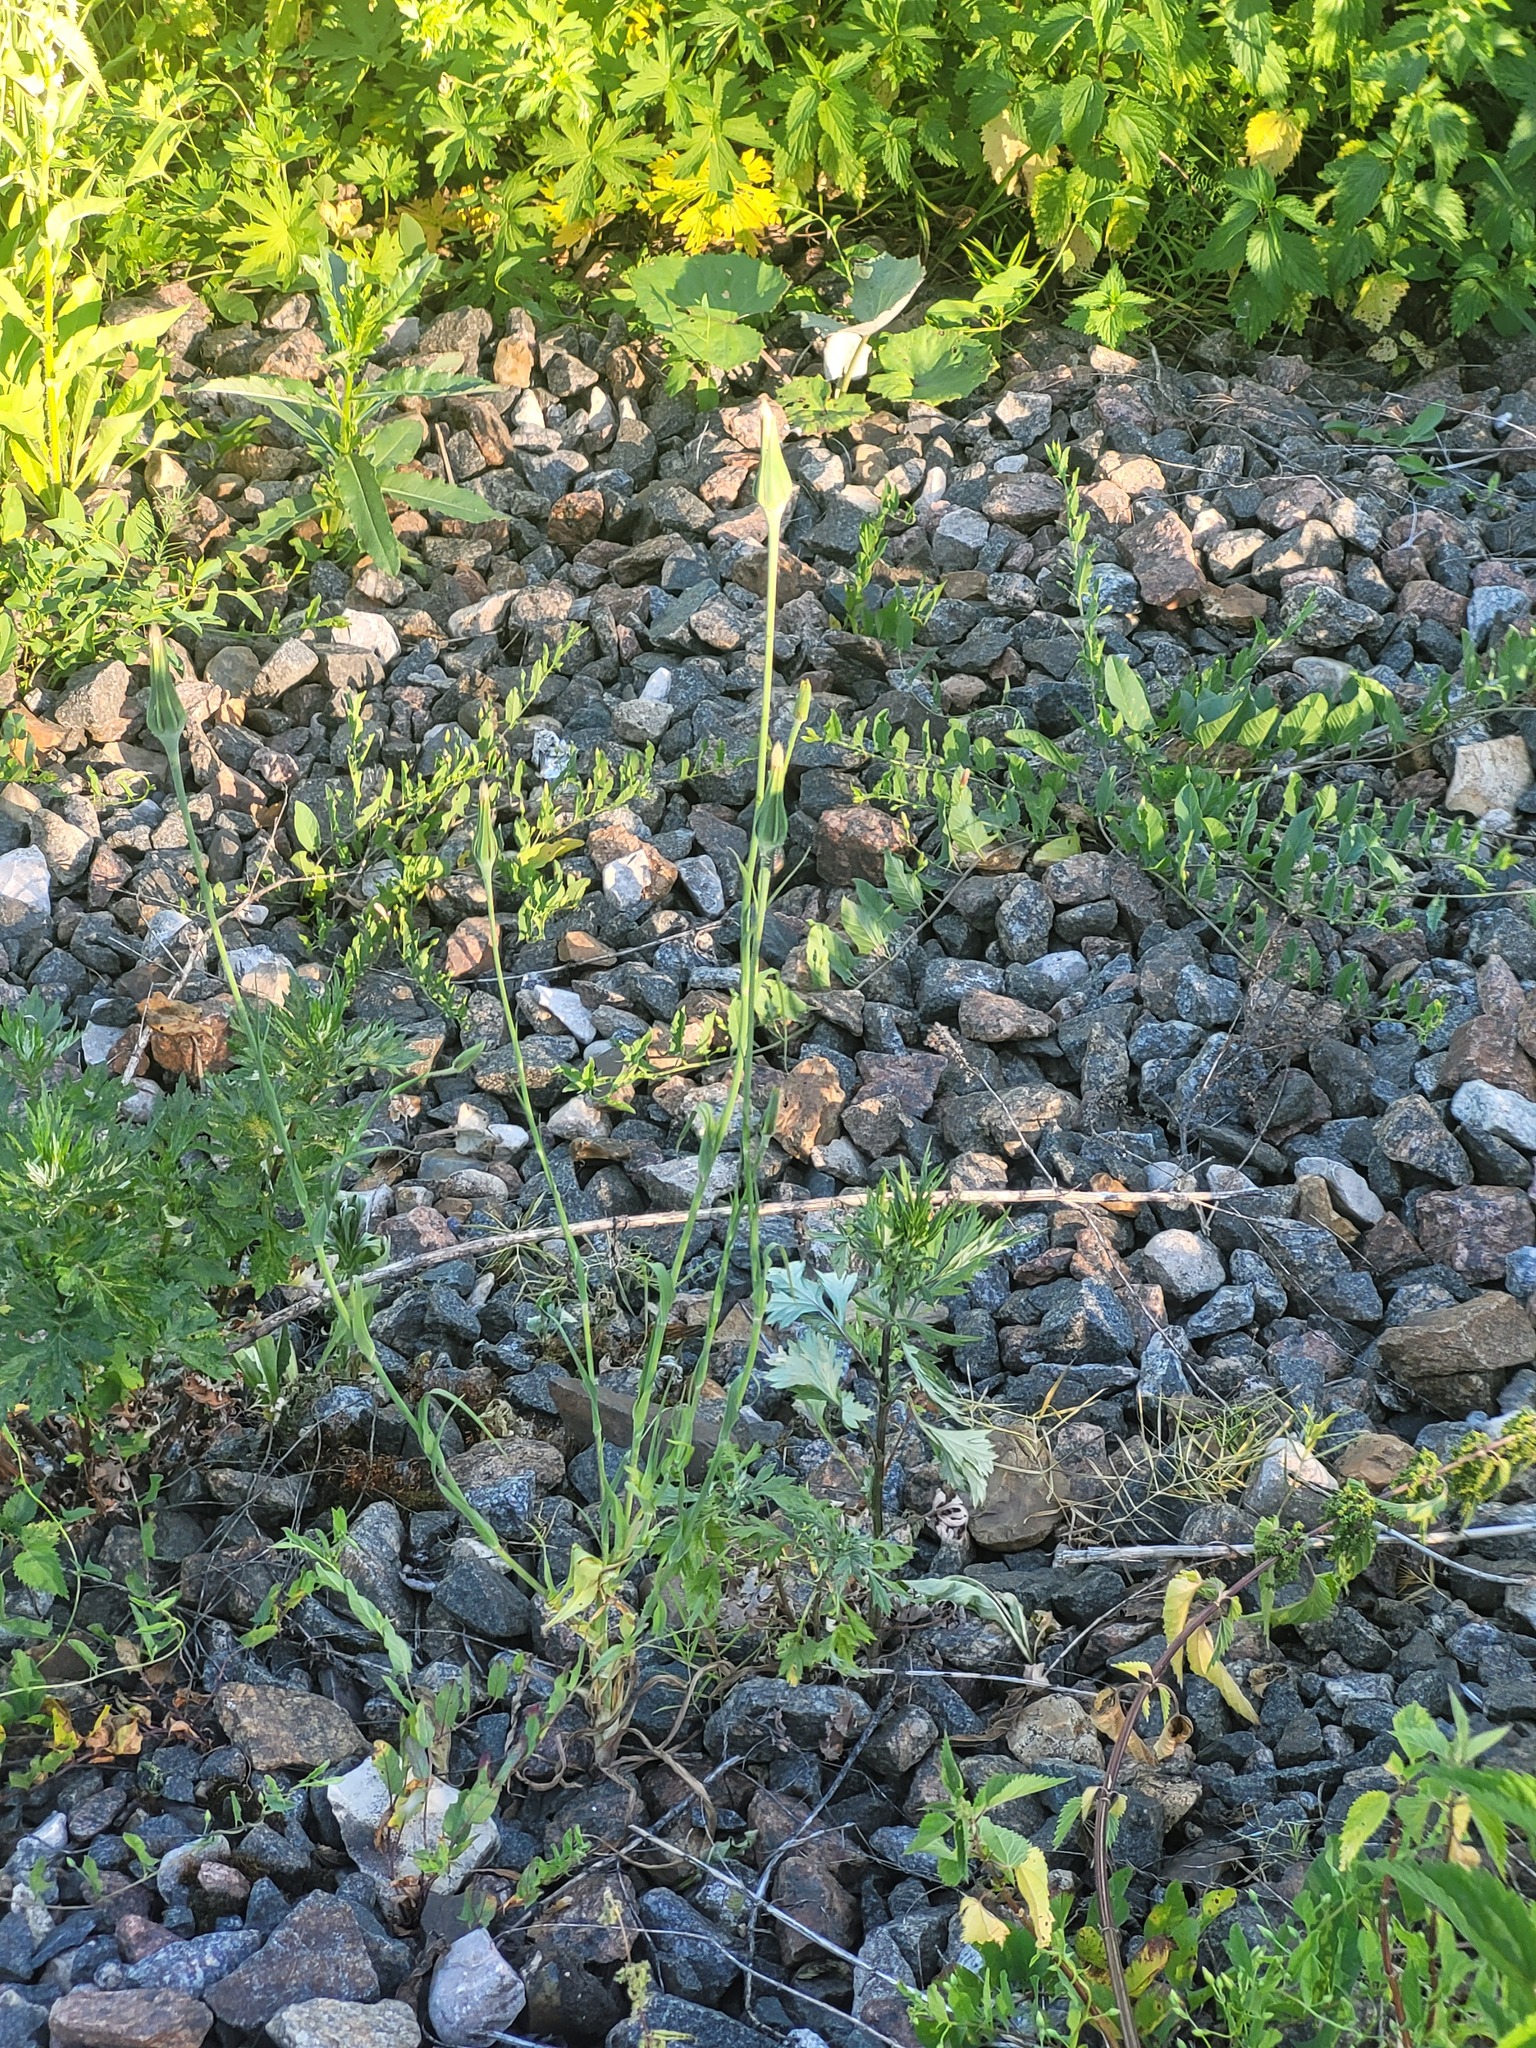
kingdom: Plantae
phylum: Tracheophyta
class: Magnoliopsida
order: Solanales
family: Convolvulaceae
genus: Convolvulus
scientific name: Convolvulus arvensis
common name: Field bindweed
